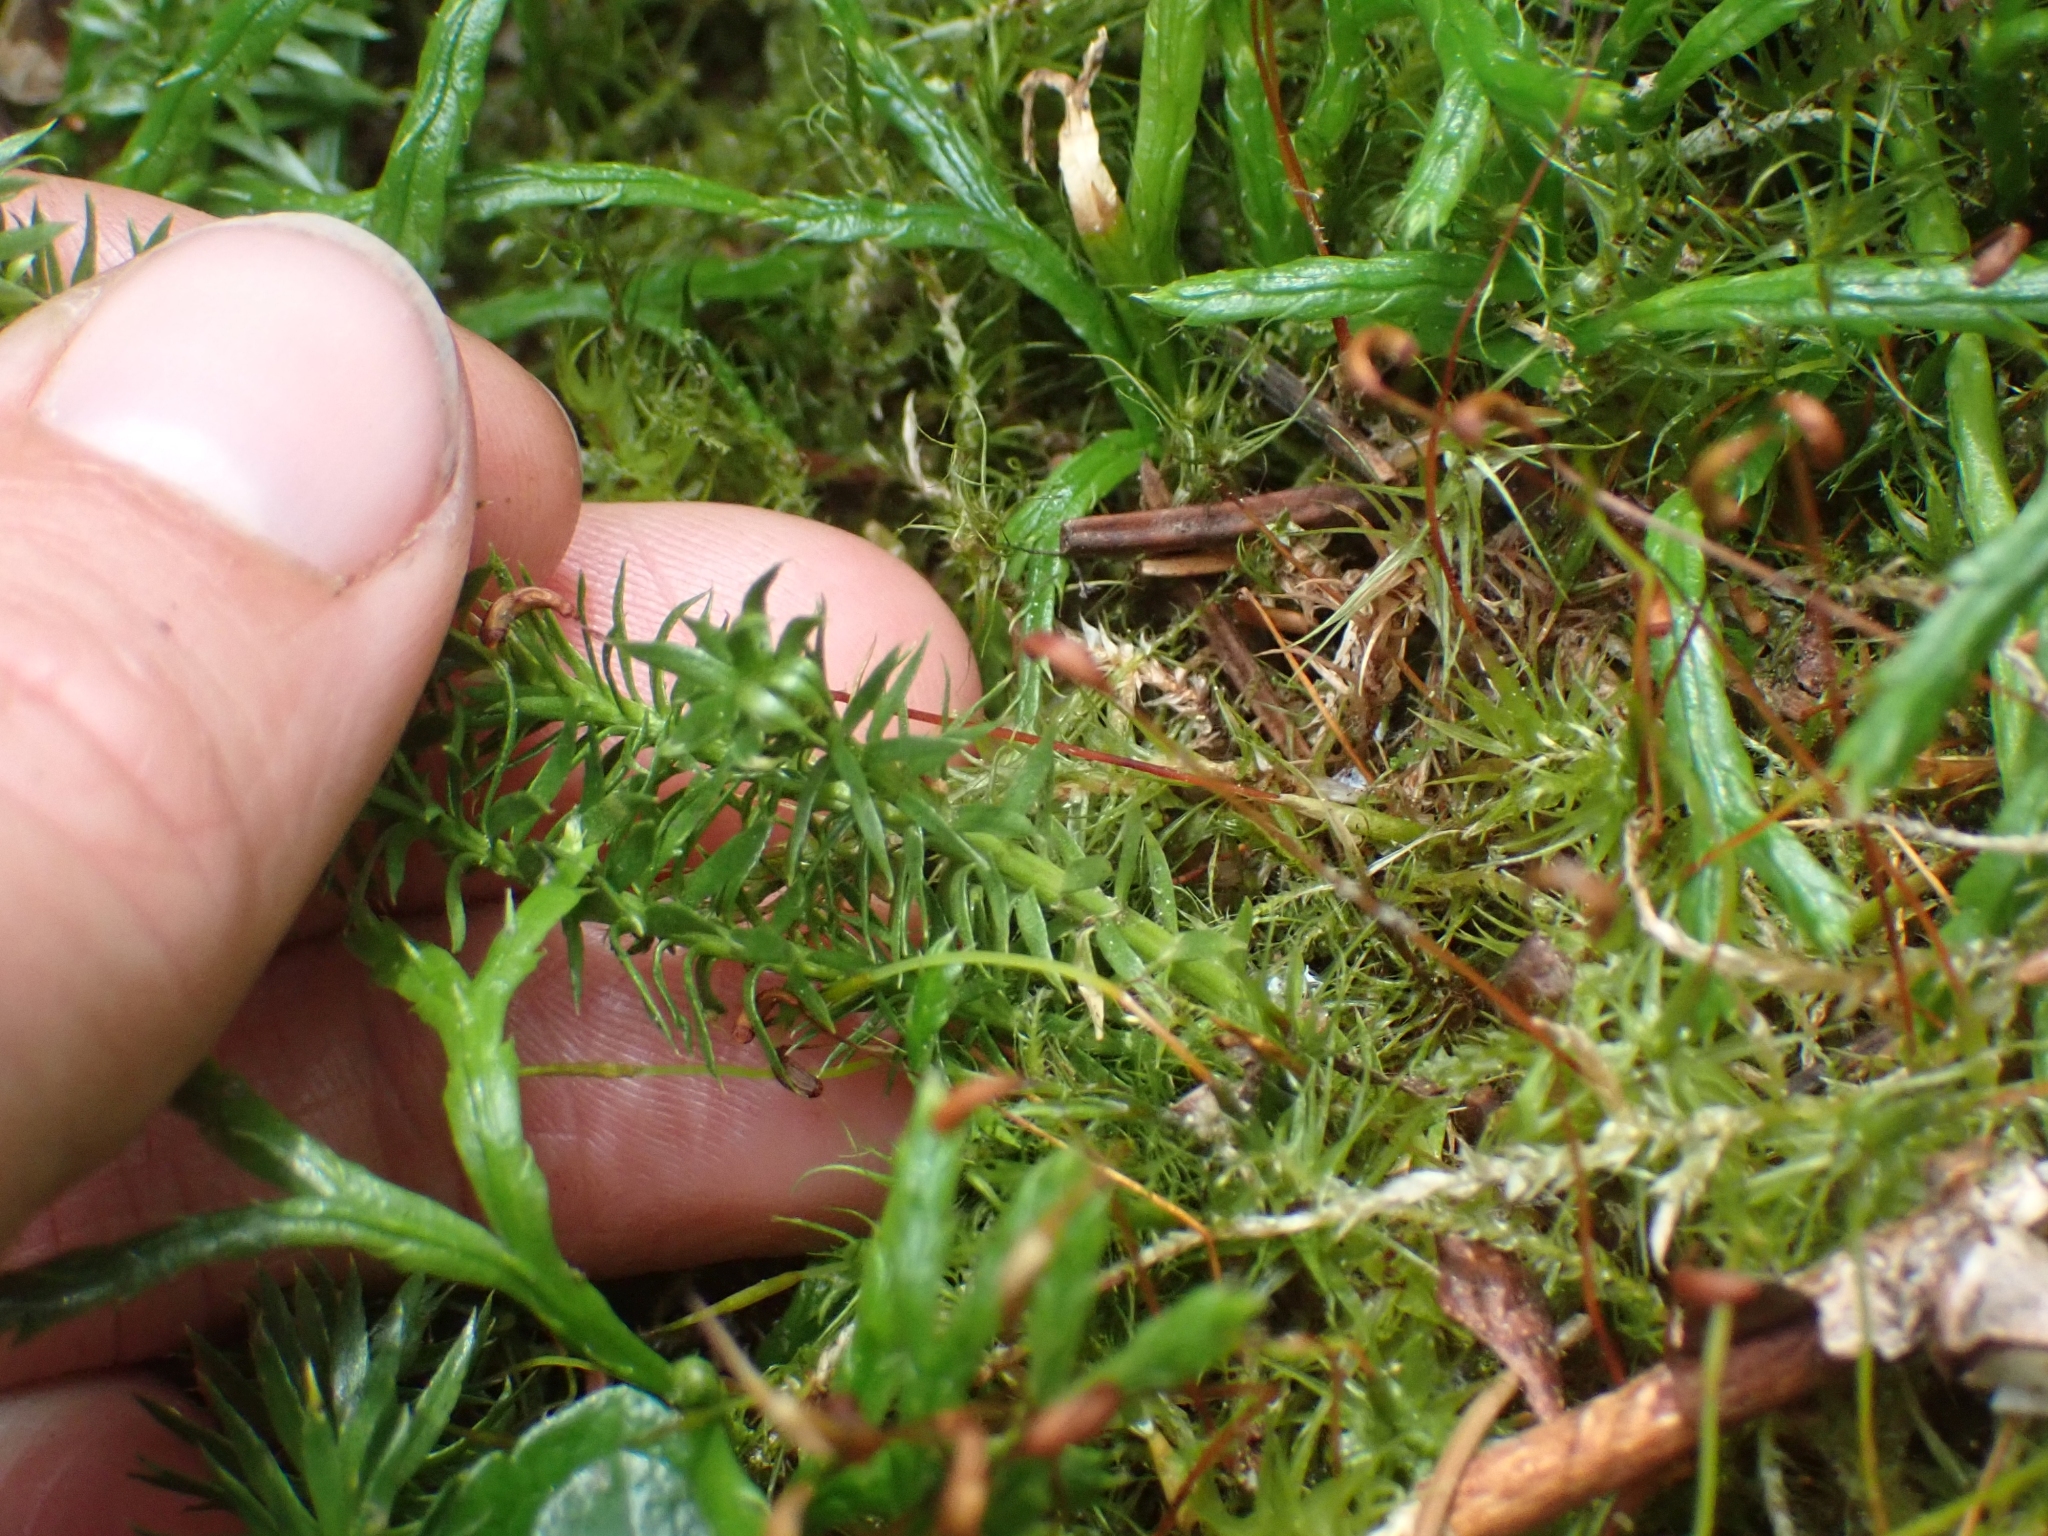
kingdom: Plantae
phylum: Tracheophyta
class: Lycopodiopsida
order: Lycopodiales
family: Lycopodiaceae
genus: Spinulum
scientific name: Spinulum annotinum
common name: Interrupted club-moss
